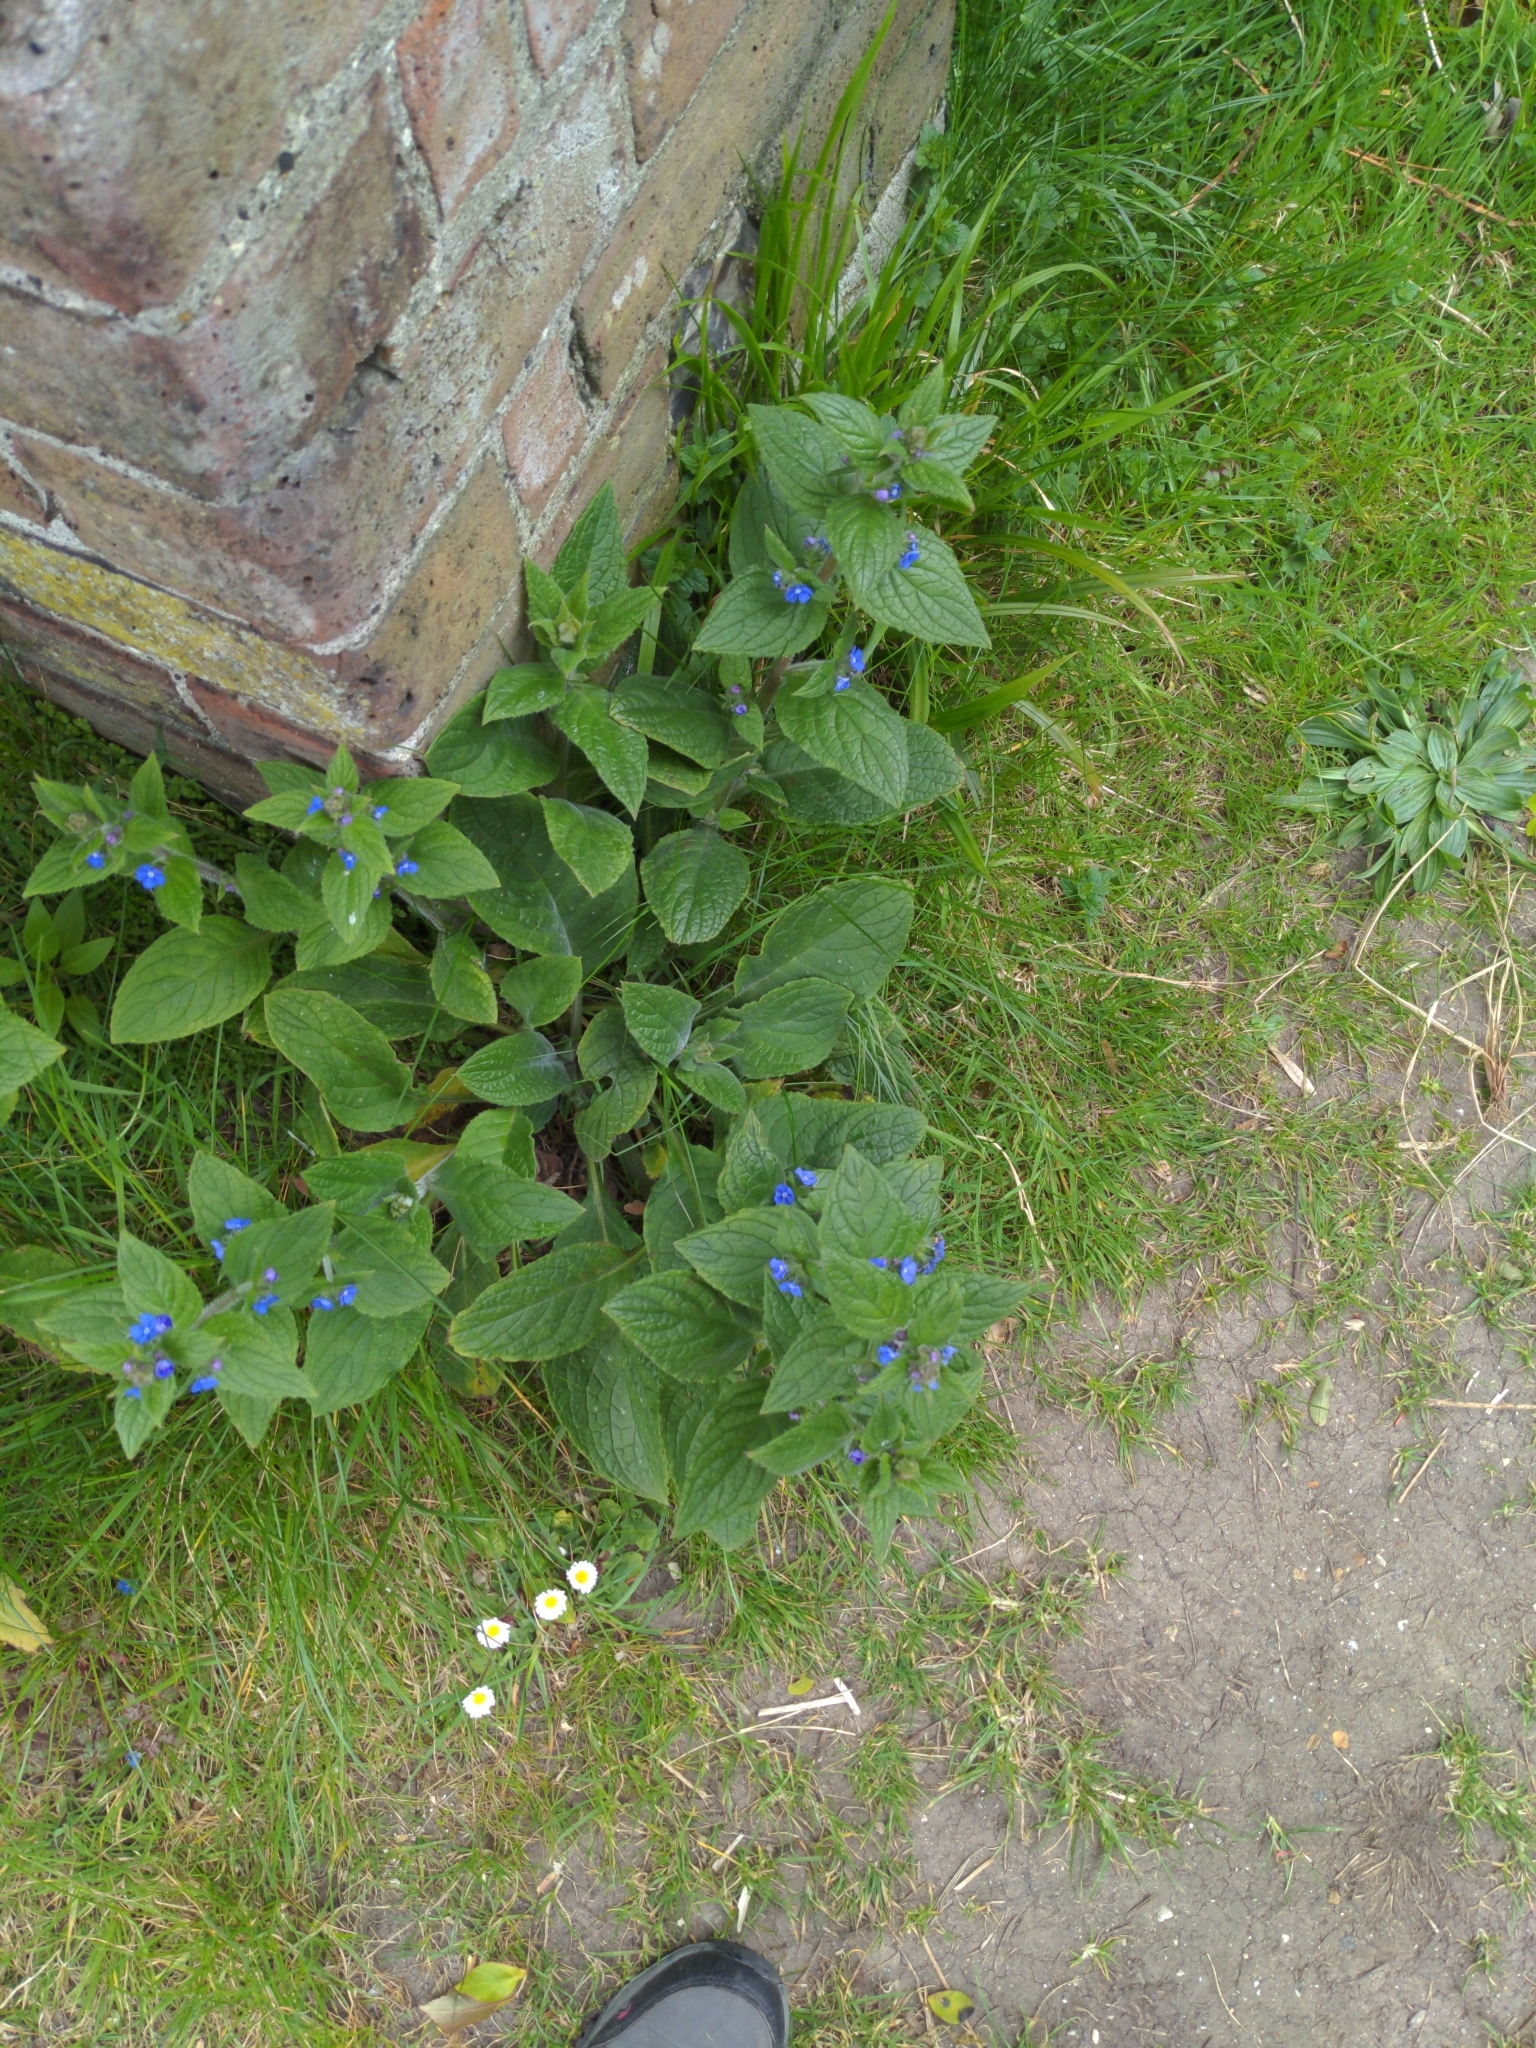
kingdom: Plantae
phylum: Tracheophyta
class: Magnoliopsida
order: Boraginales
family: Boraginaceae
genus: Pentaglottis
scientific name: Pentaglottis sempervirens
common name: Green alkanet
